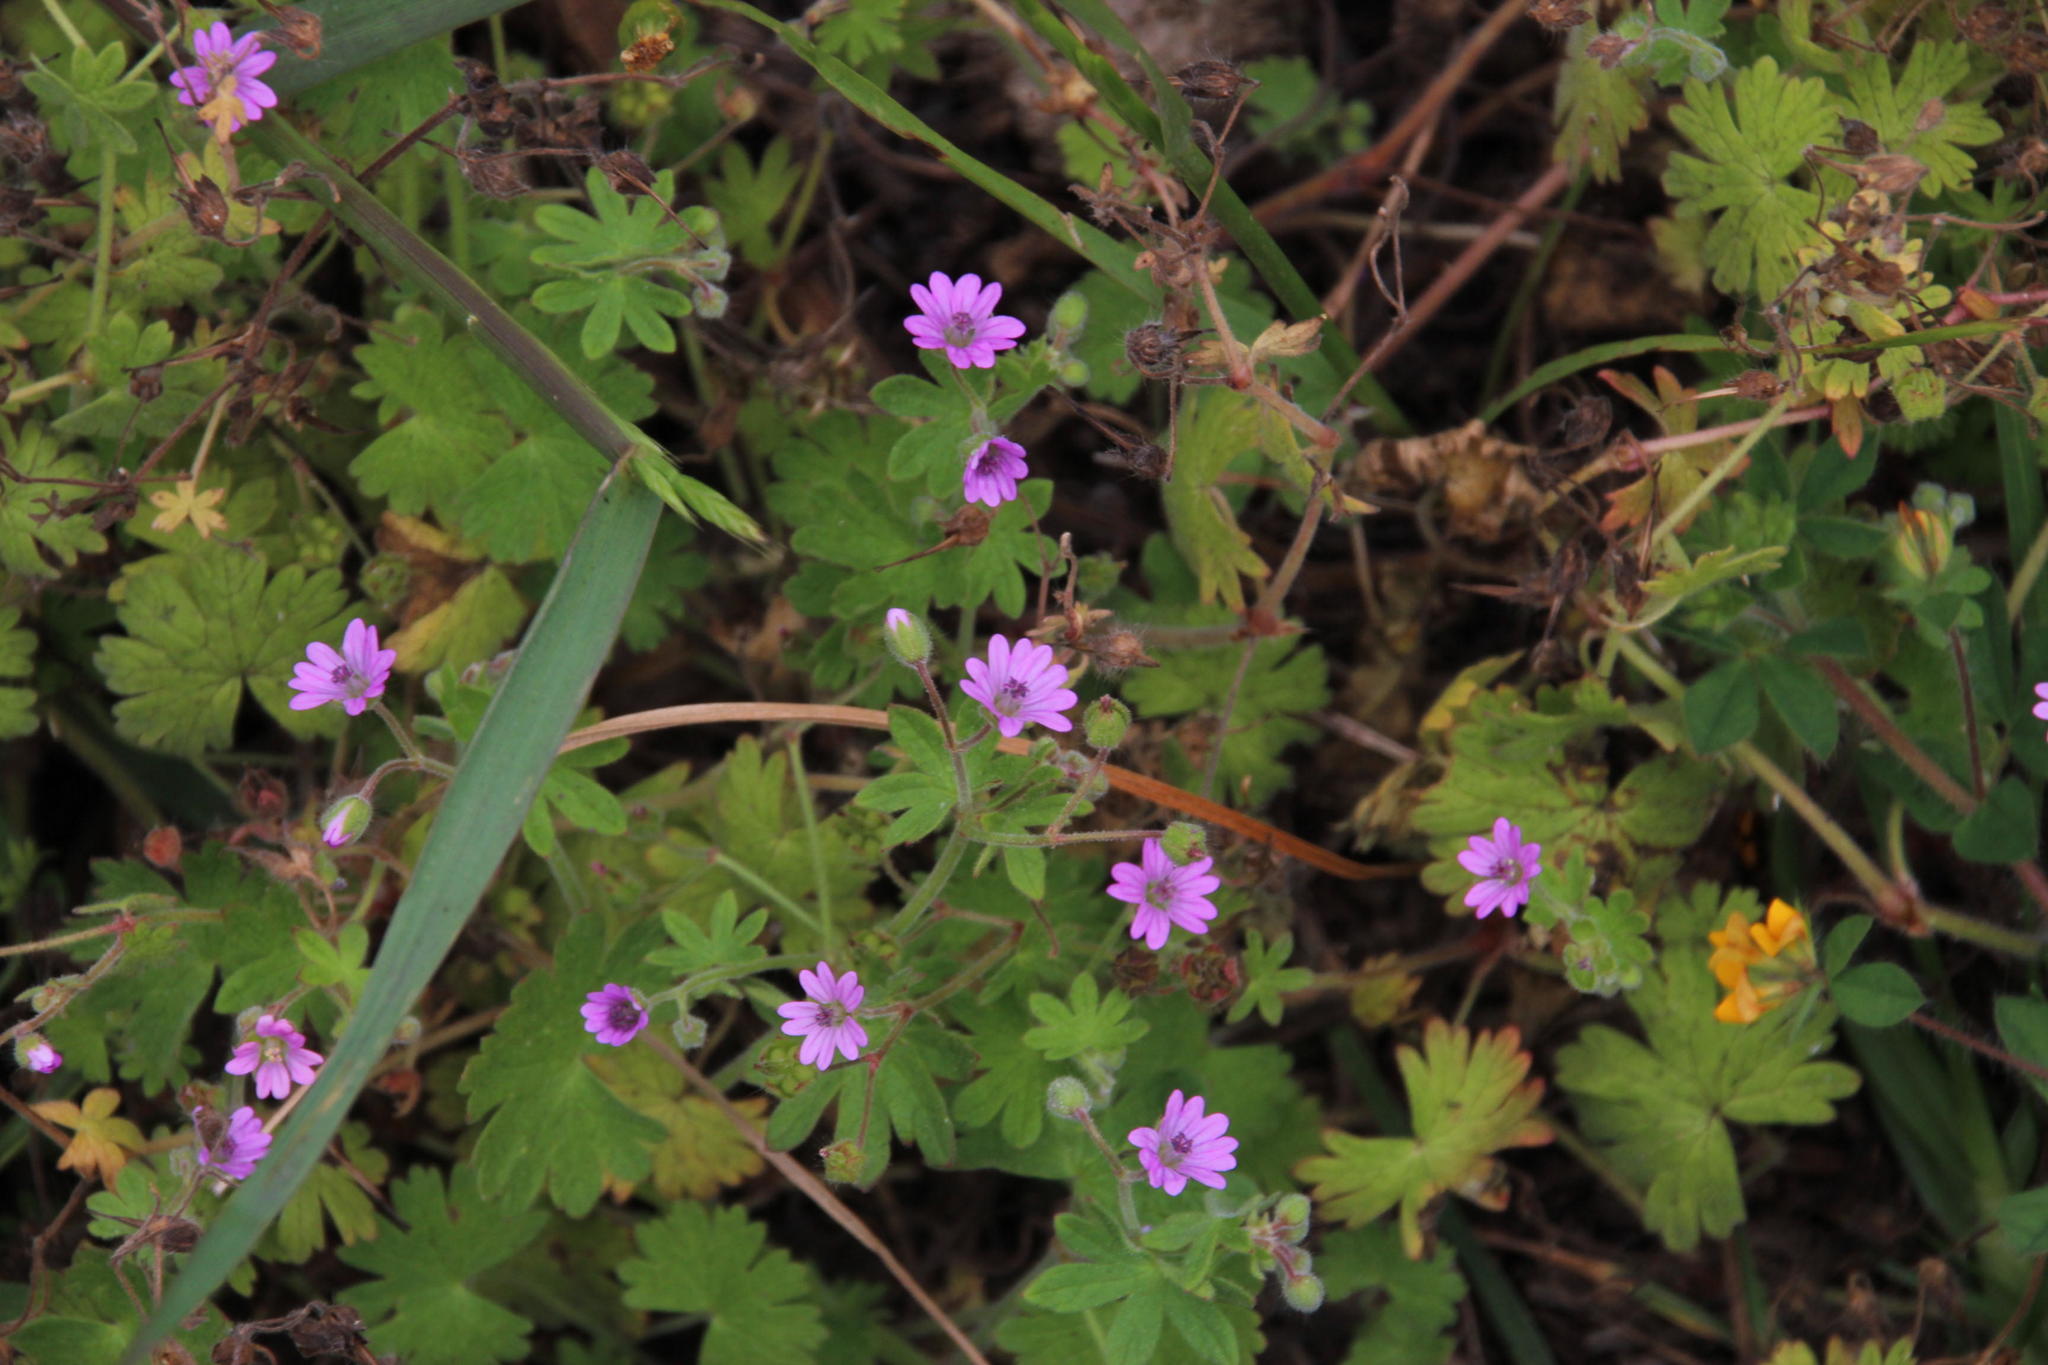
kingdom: Plantae
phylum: Tracheophyta
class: Magnoliopsida
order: Geraniales
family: Geraniaceae
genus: Geranium
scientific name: Geranium molle
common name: Dove's-foot crane's-bill
